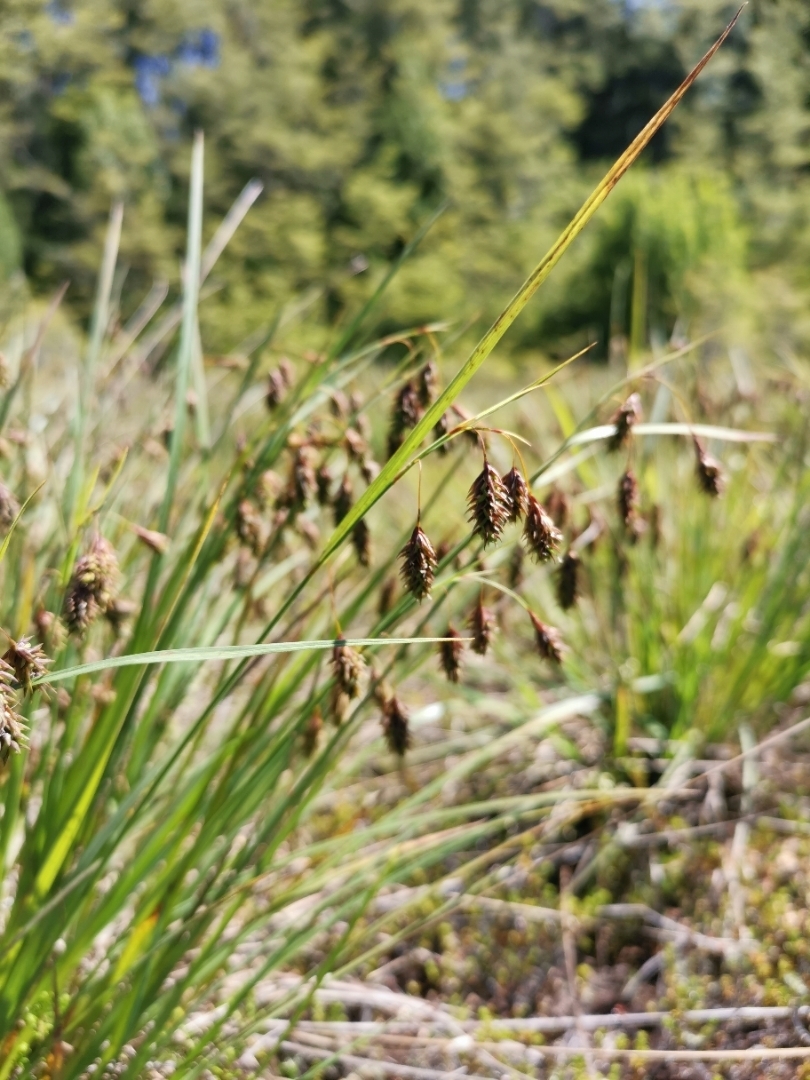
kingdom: Plantae
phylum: Tracheophyta
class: Liliopsida
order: Poales
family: Cyperaceae
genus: Carex
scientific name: Carex magellanica
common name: Bog sedge
